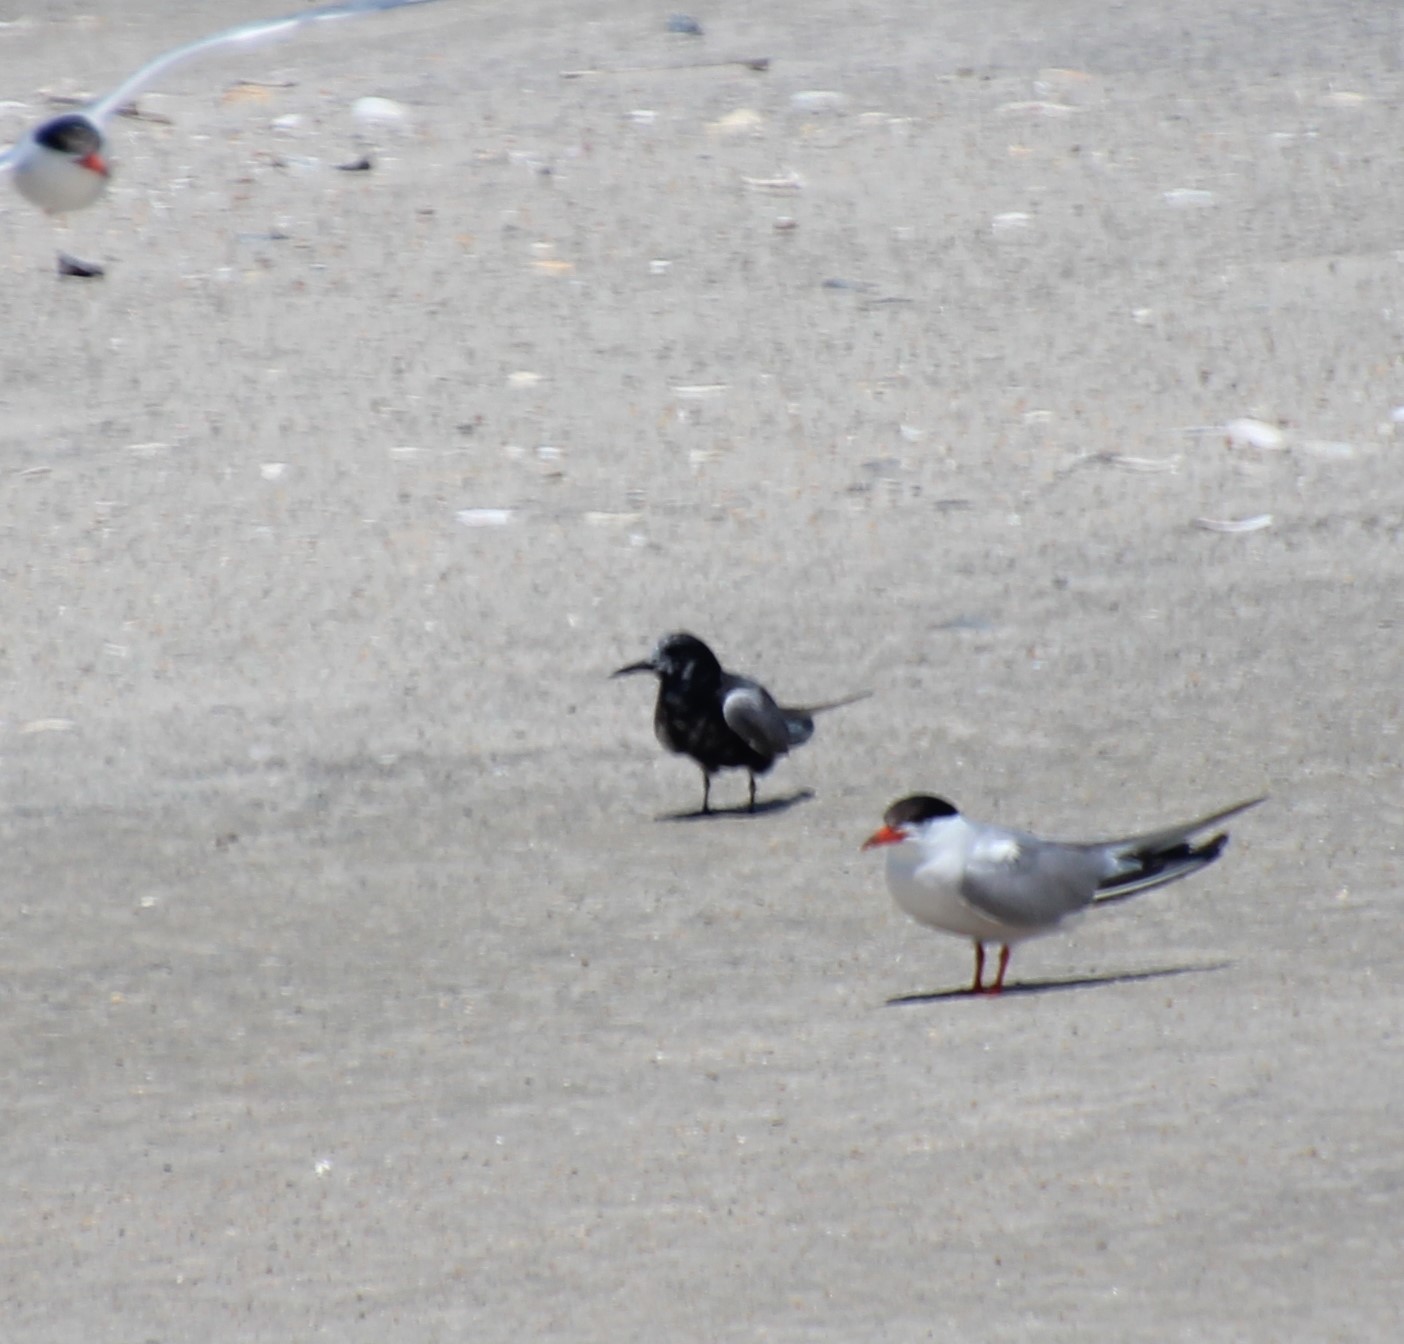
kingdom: Animalia
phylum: Chordata
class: Aves
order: Charadriiformes
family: Laridae
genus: Chlidonias
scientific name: Chlidonias niger
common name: Black tern
